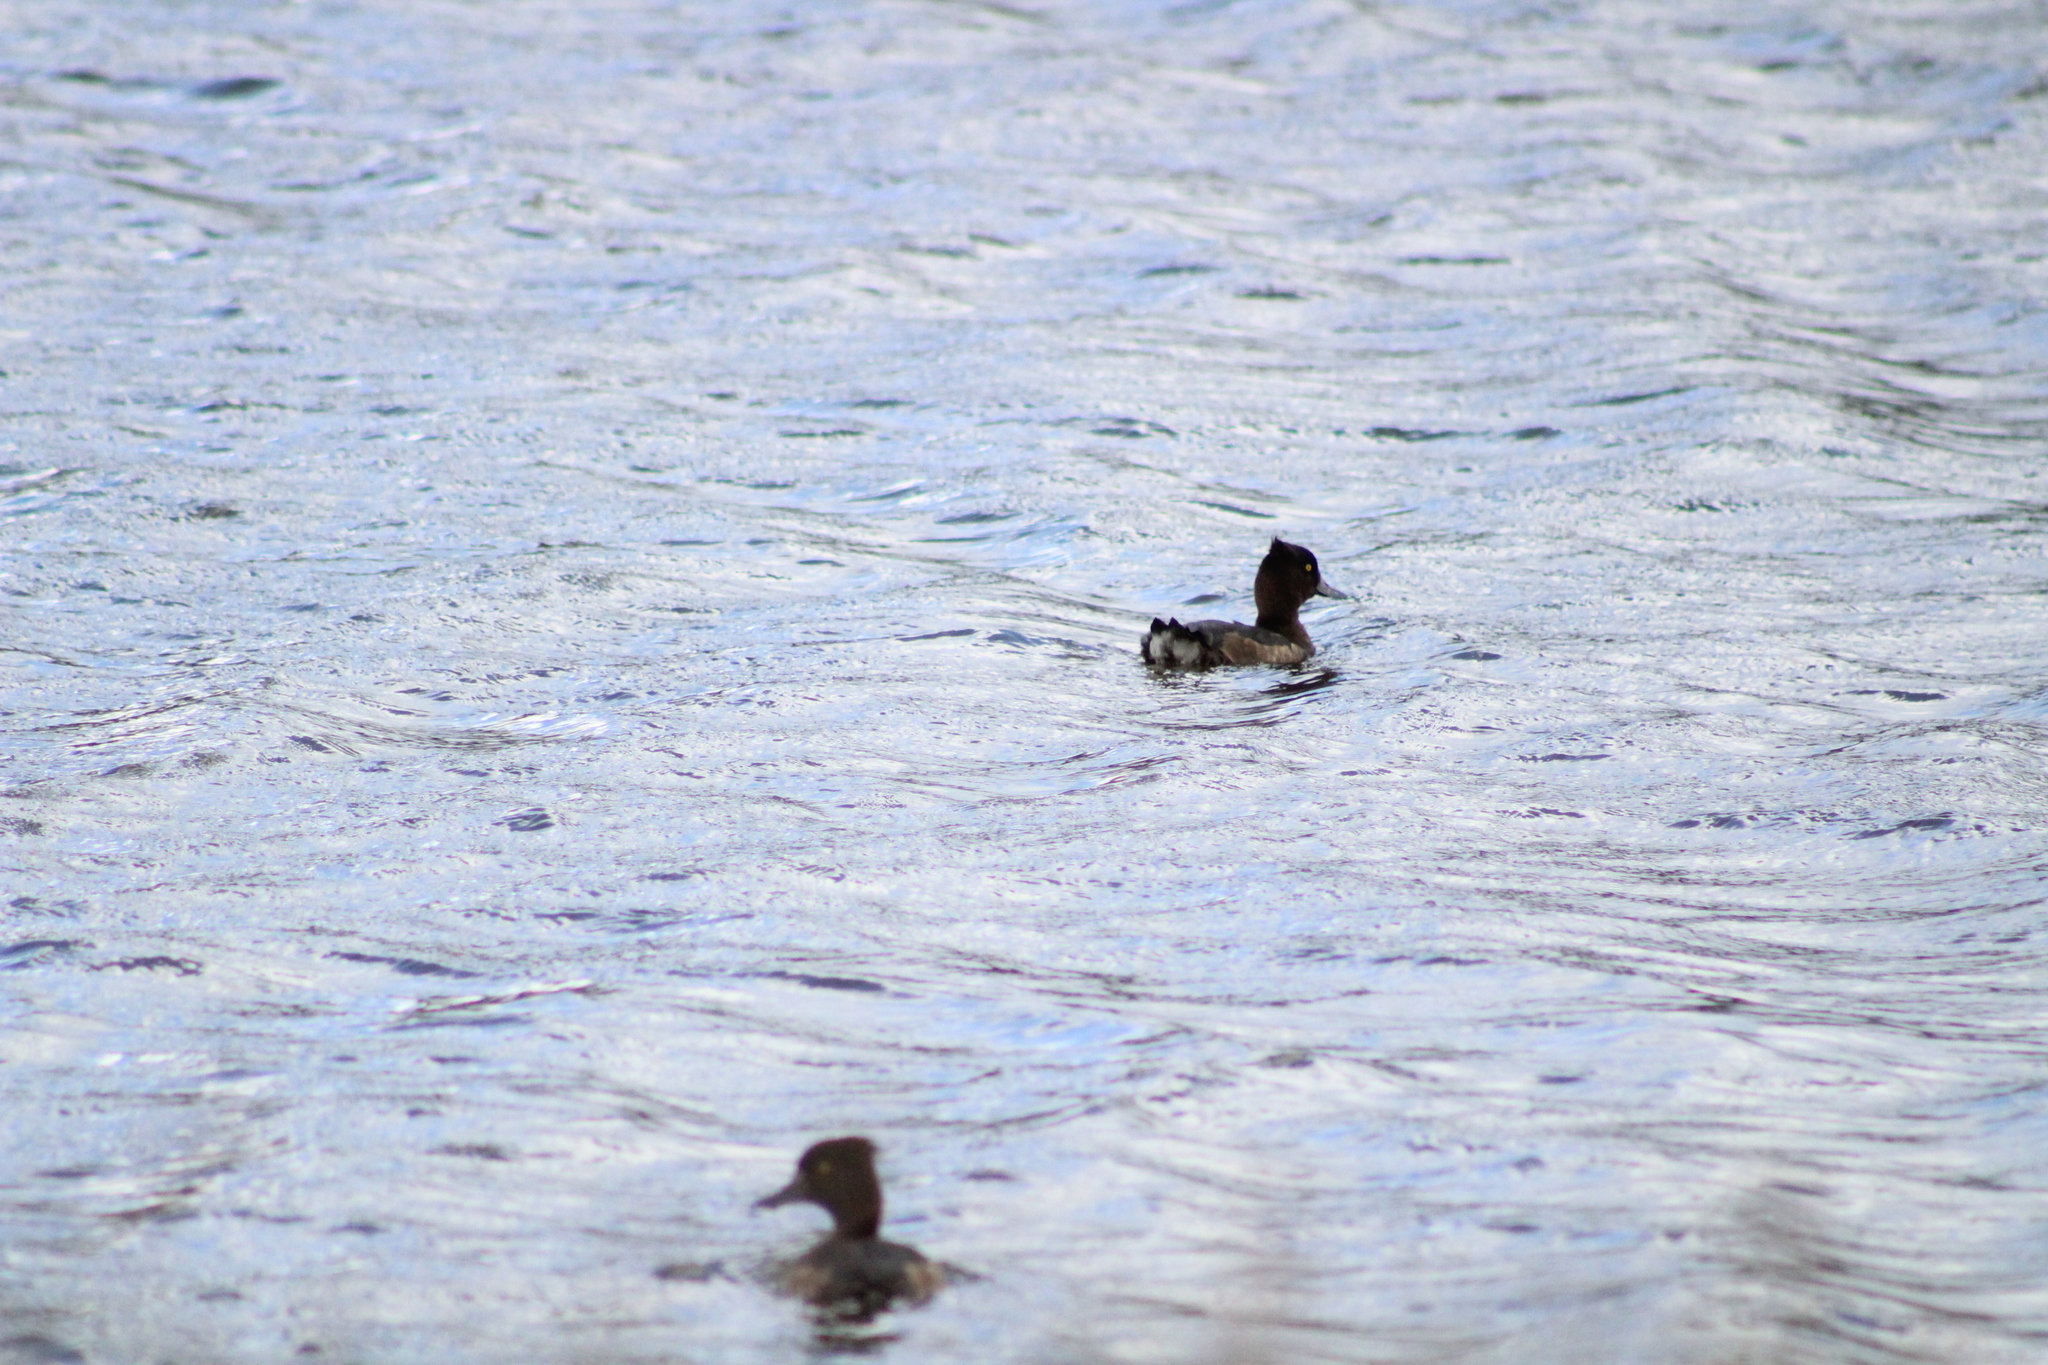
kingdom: Animalia
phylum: Chordata
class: Aves
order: Anseriformes
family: Anatidae
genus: Aythya
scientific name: Aythya fuligula
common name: Tufted duck
